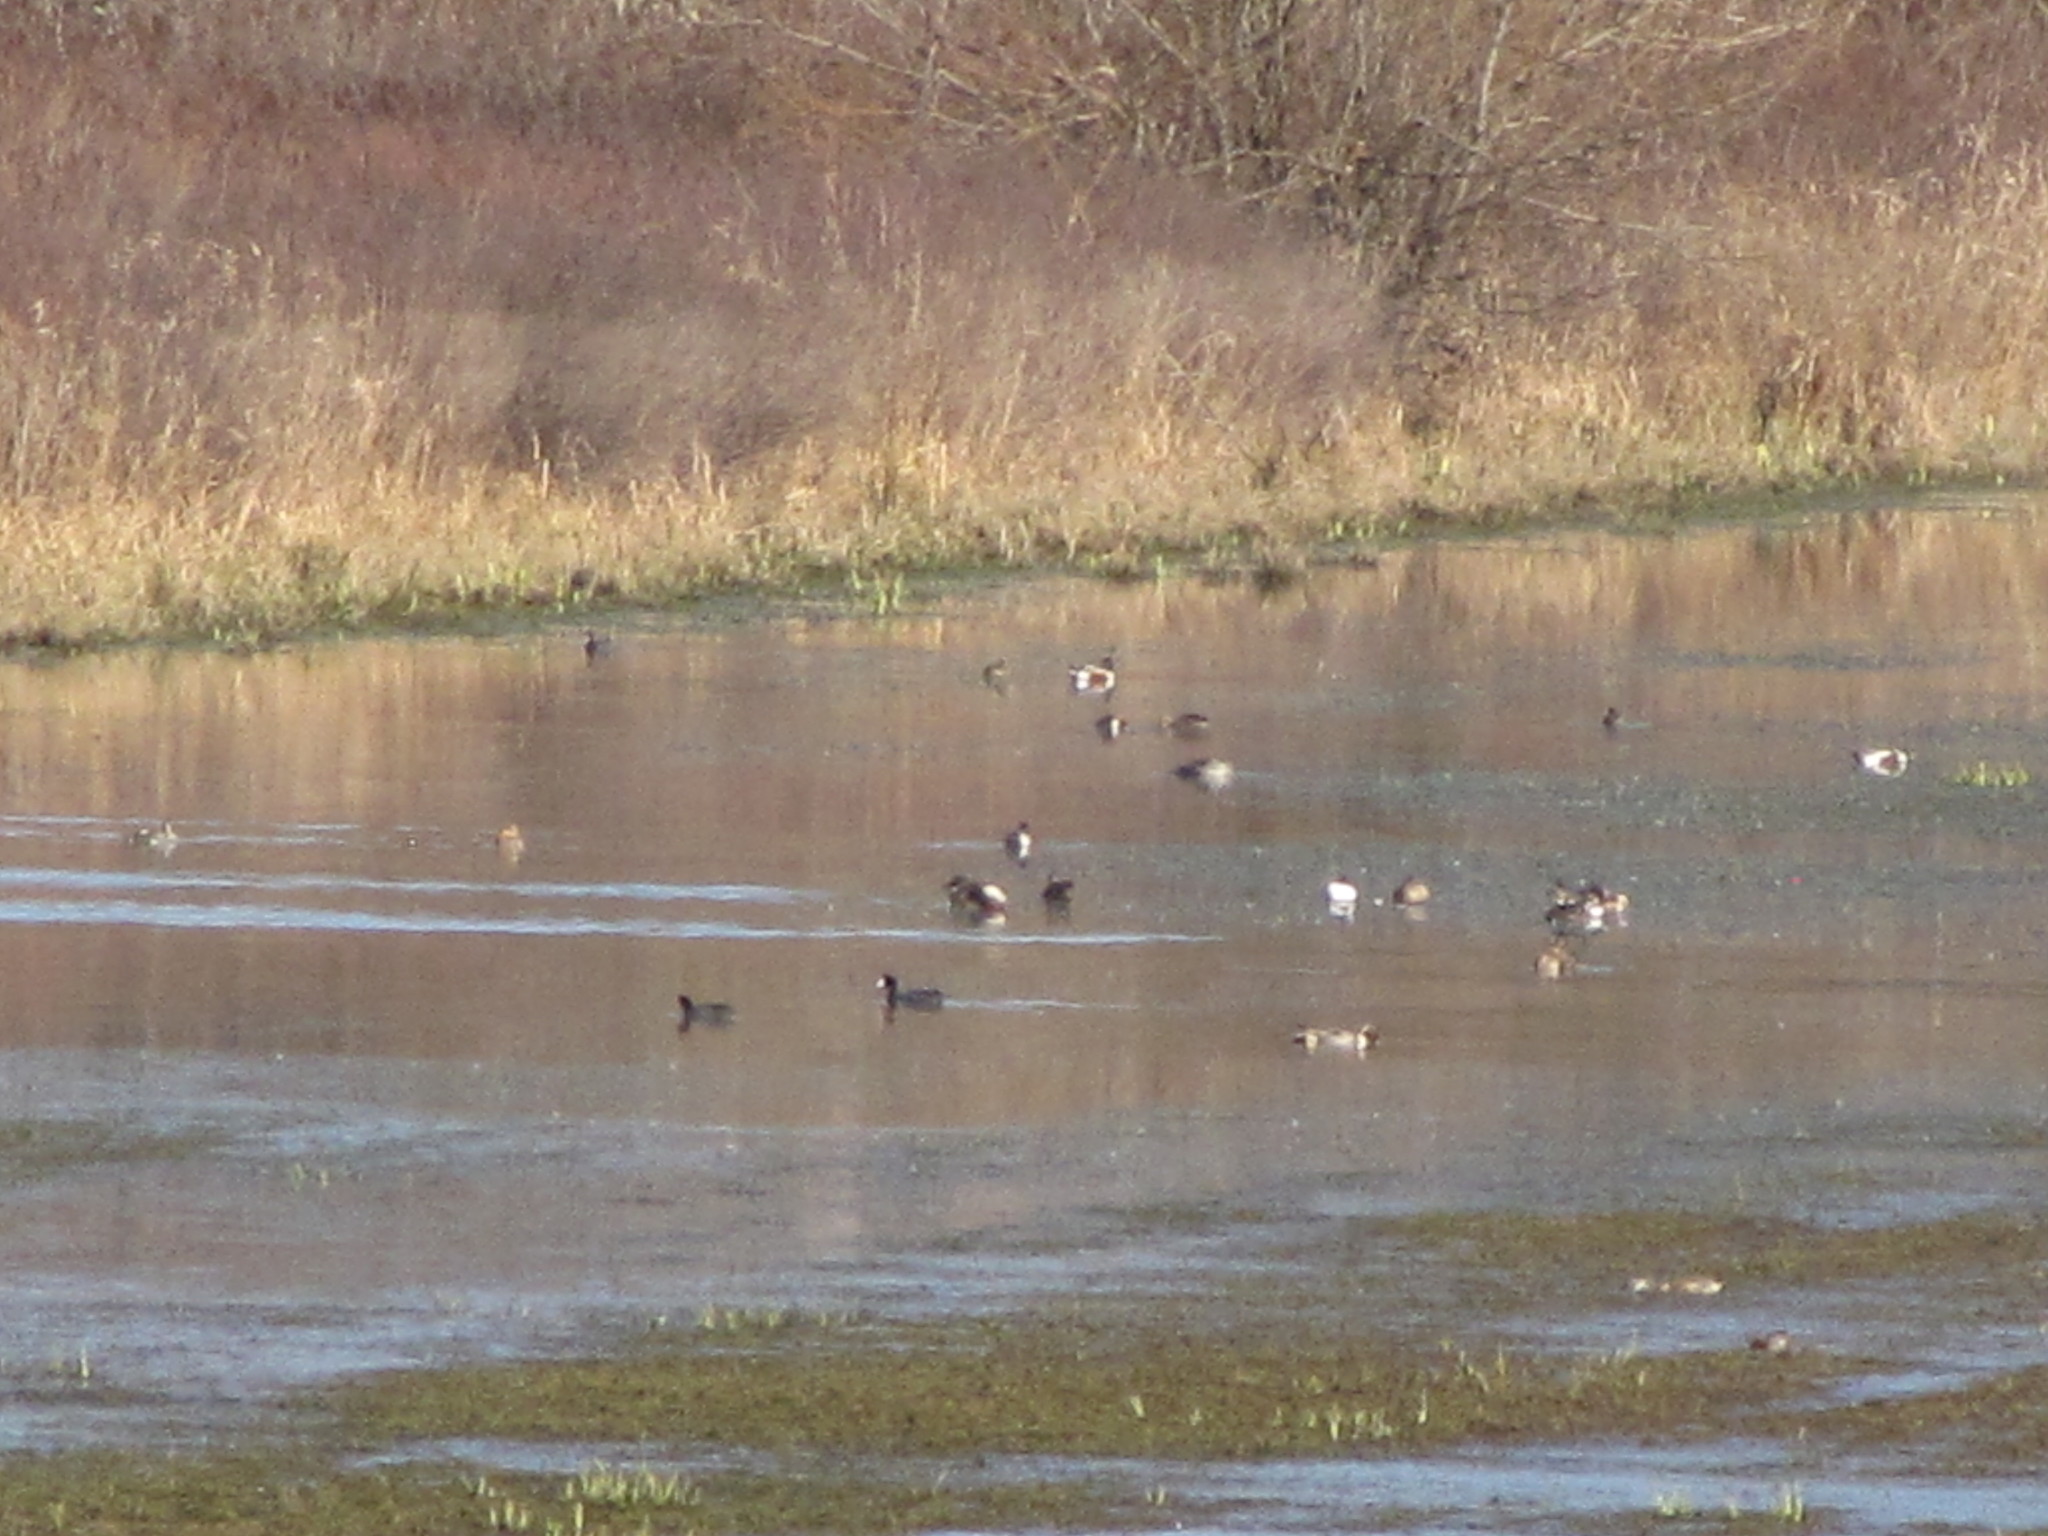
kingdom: Animalia
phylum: Chordata
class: Aves
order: Anseriformes
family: Anatidae
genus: Anas
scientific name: Anas acuta
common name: Northern pintail
